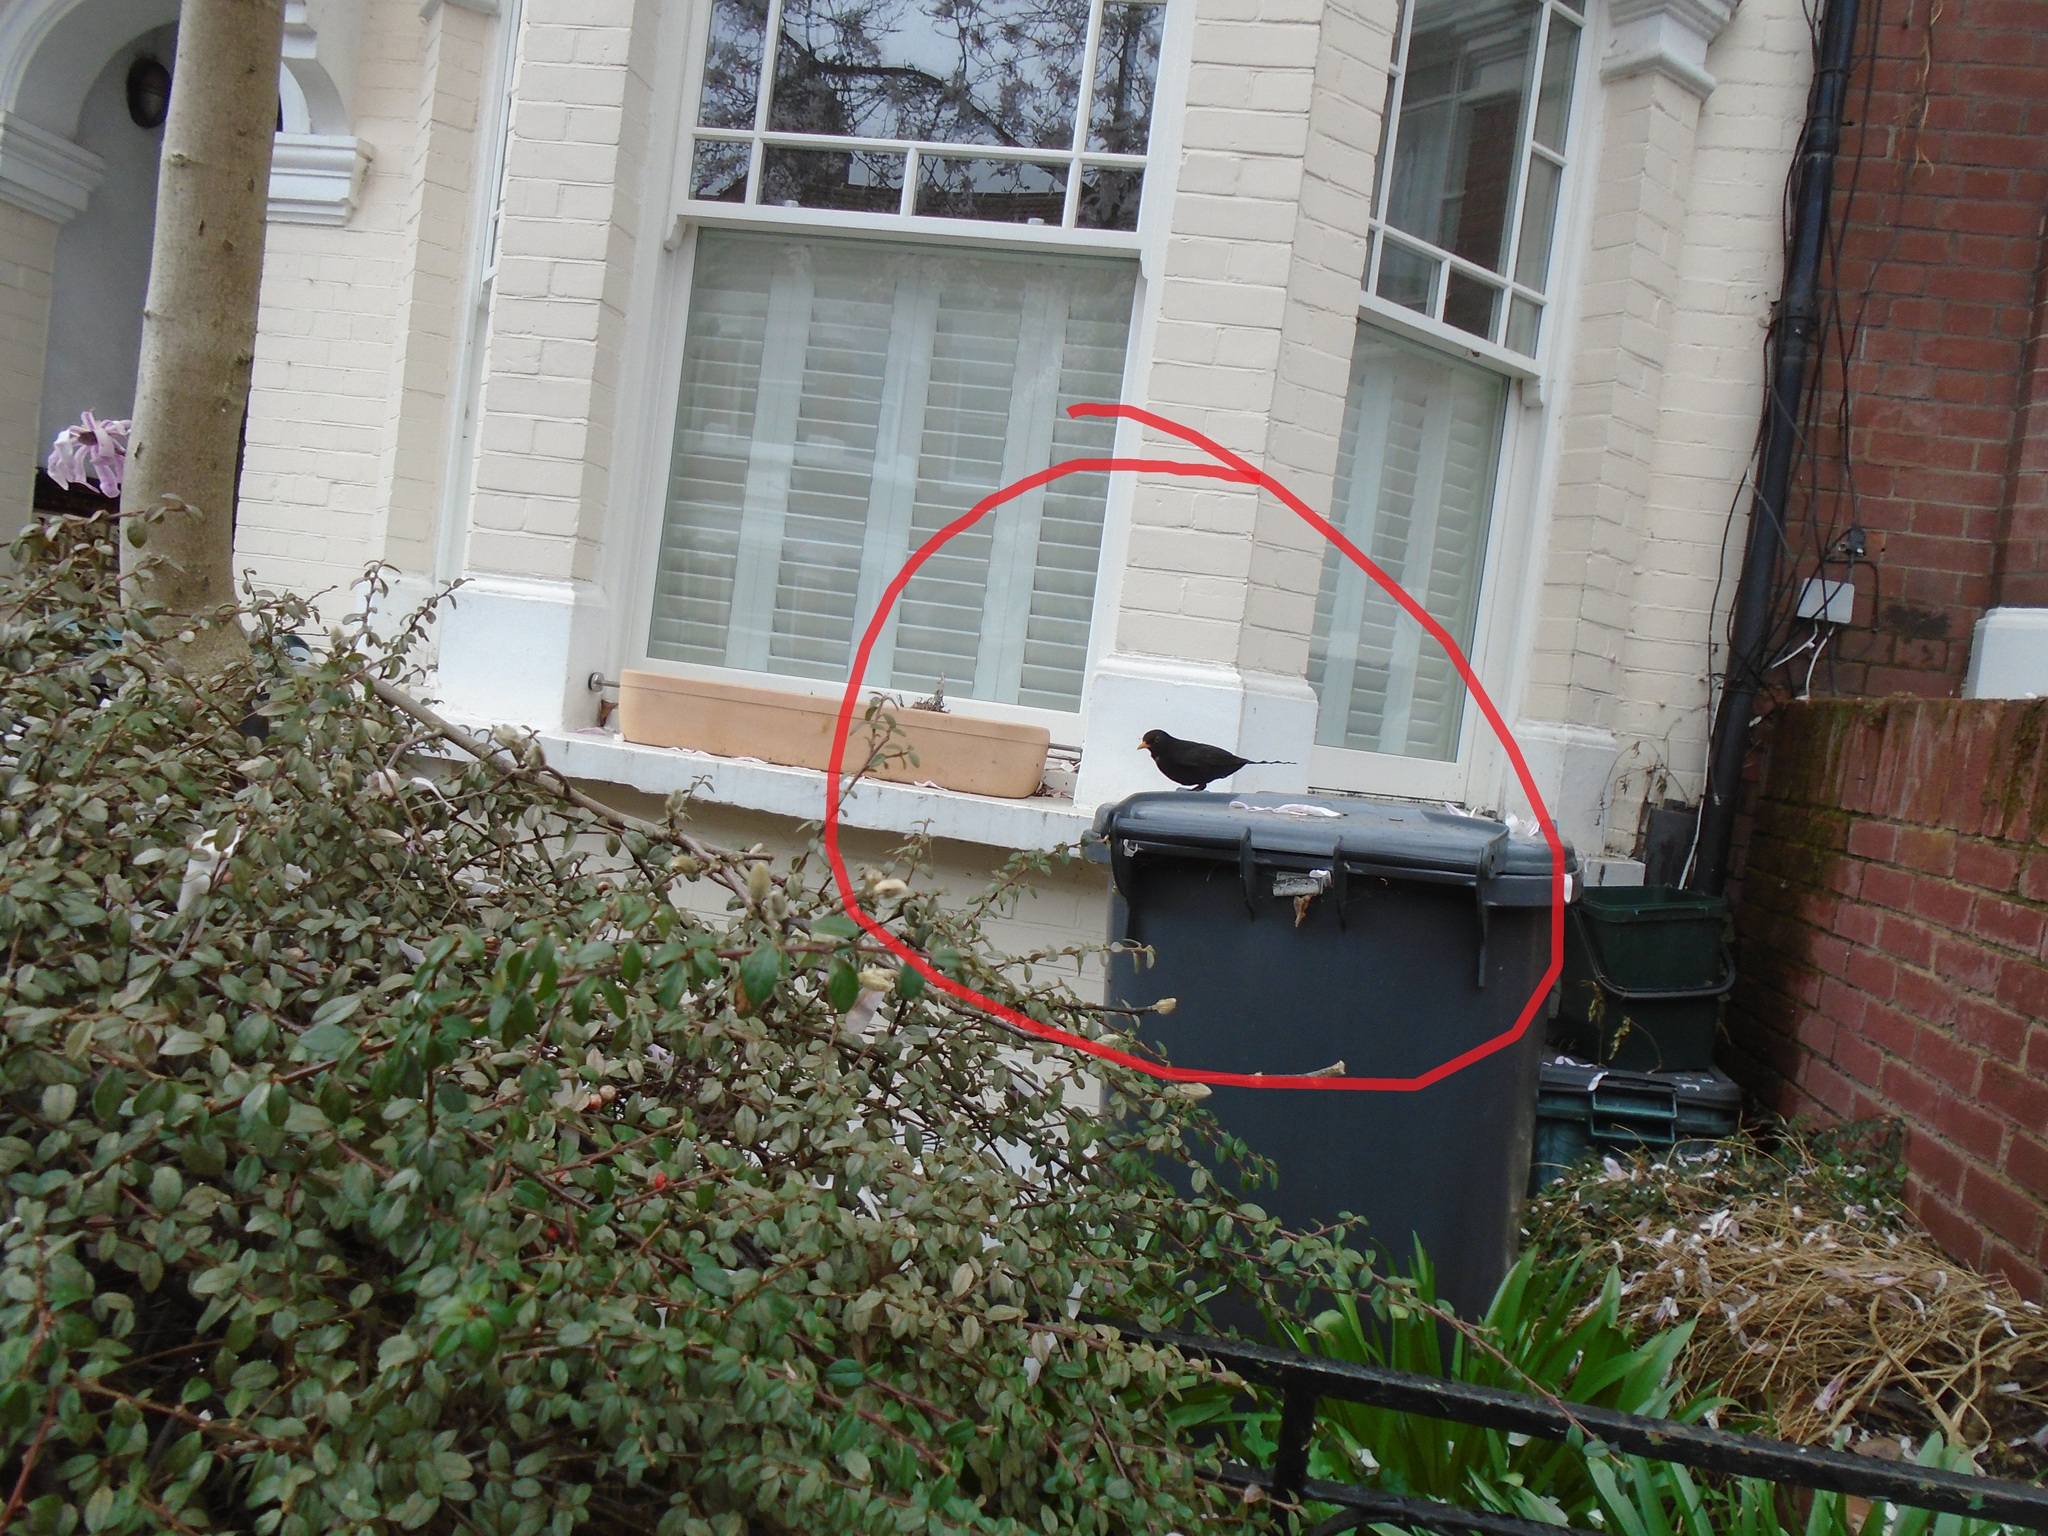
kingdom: Animalia
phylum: Chordata
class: Aves
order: Passeriformes
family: Turdidae
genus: Turdus
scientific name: Turdus merula
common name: Common blackbird
